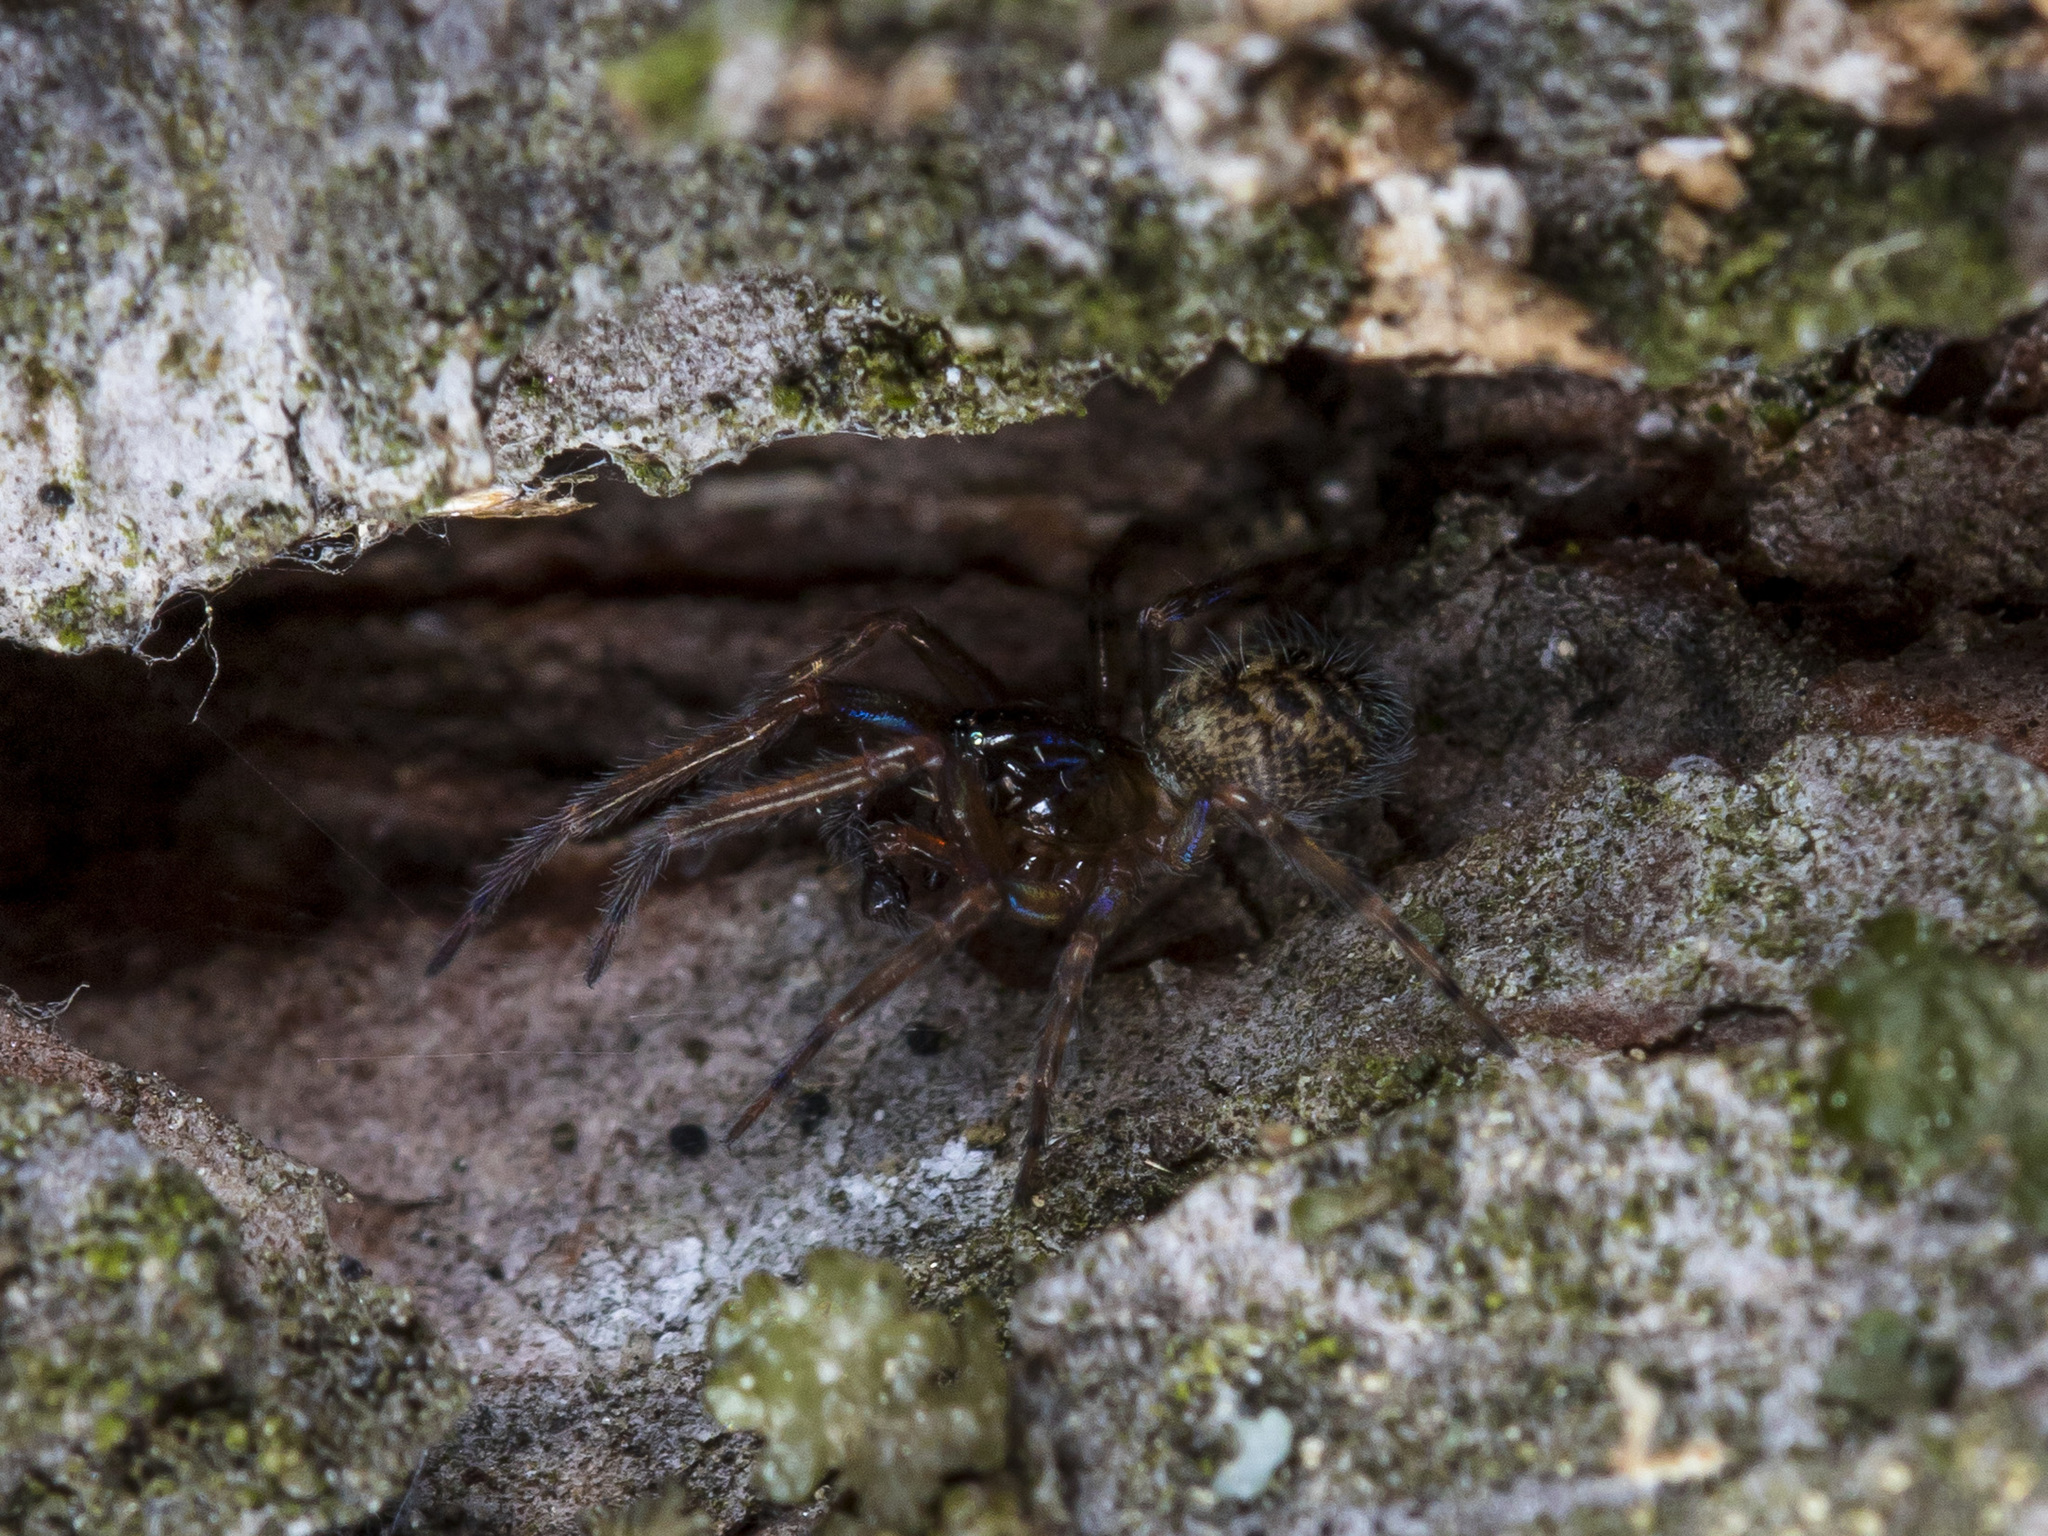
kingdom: Animalia
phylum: Arthropoda
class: Arachnida
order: Araneae
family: Dictynidae
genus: Lathys
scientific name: Lathys truncata
